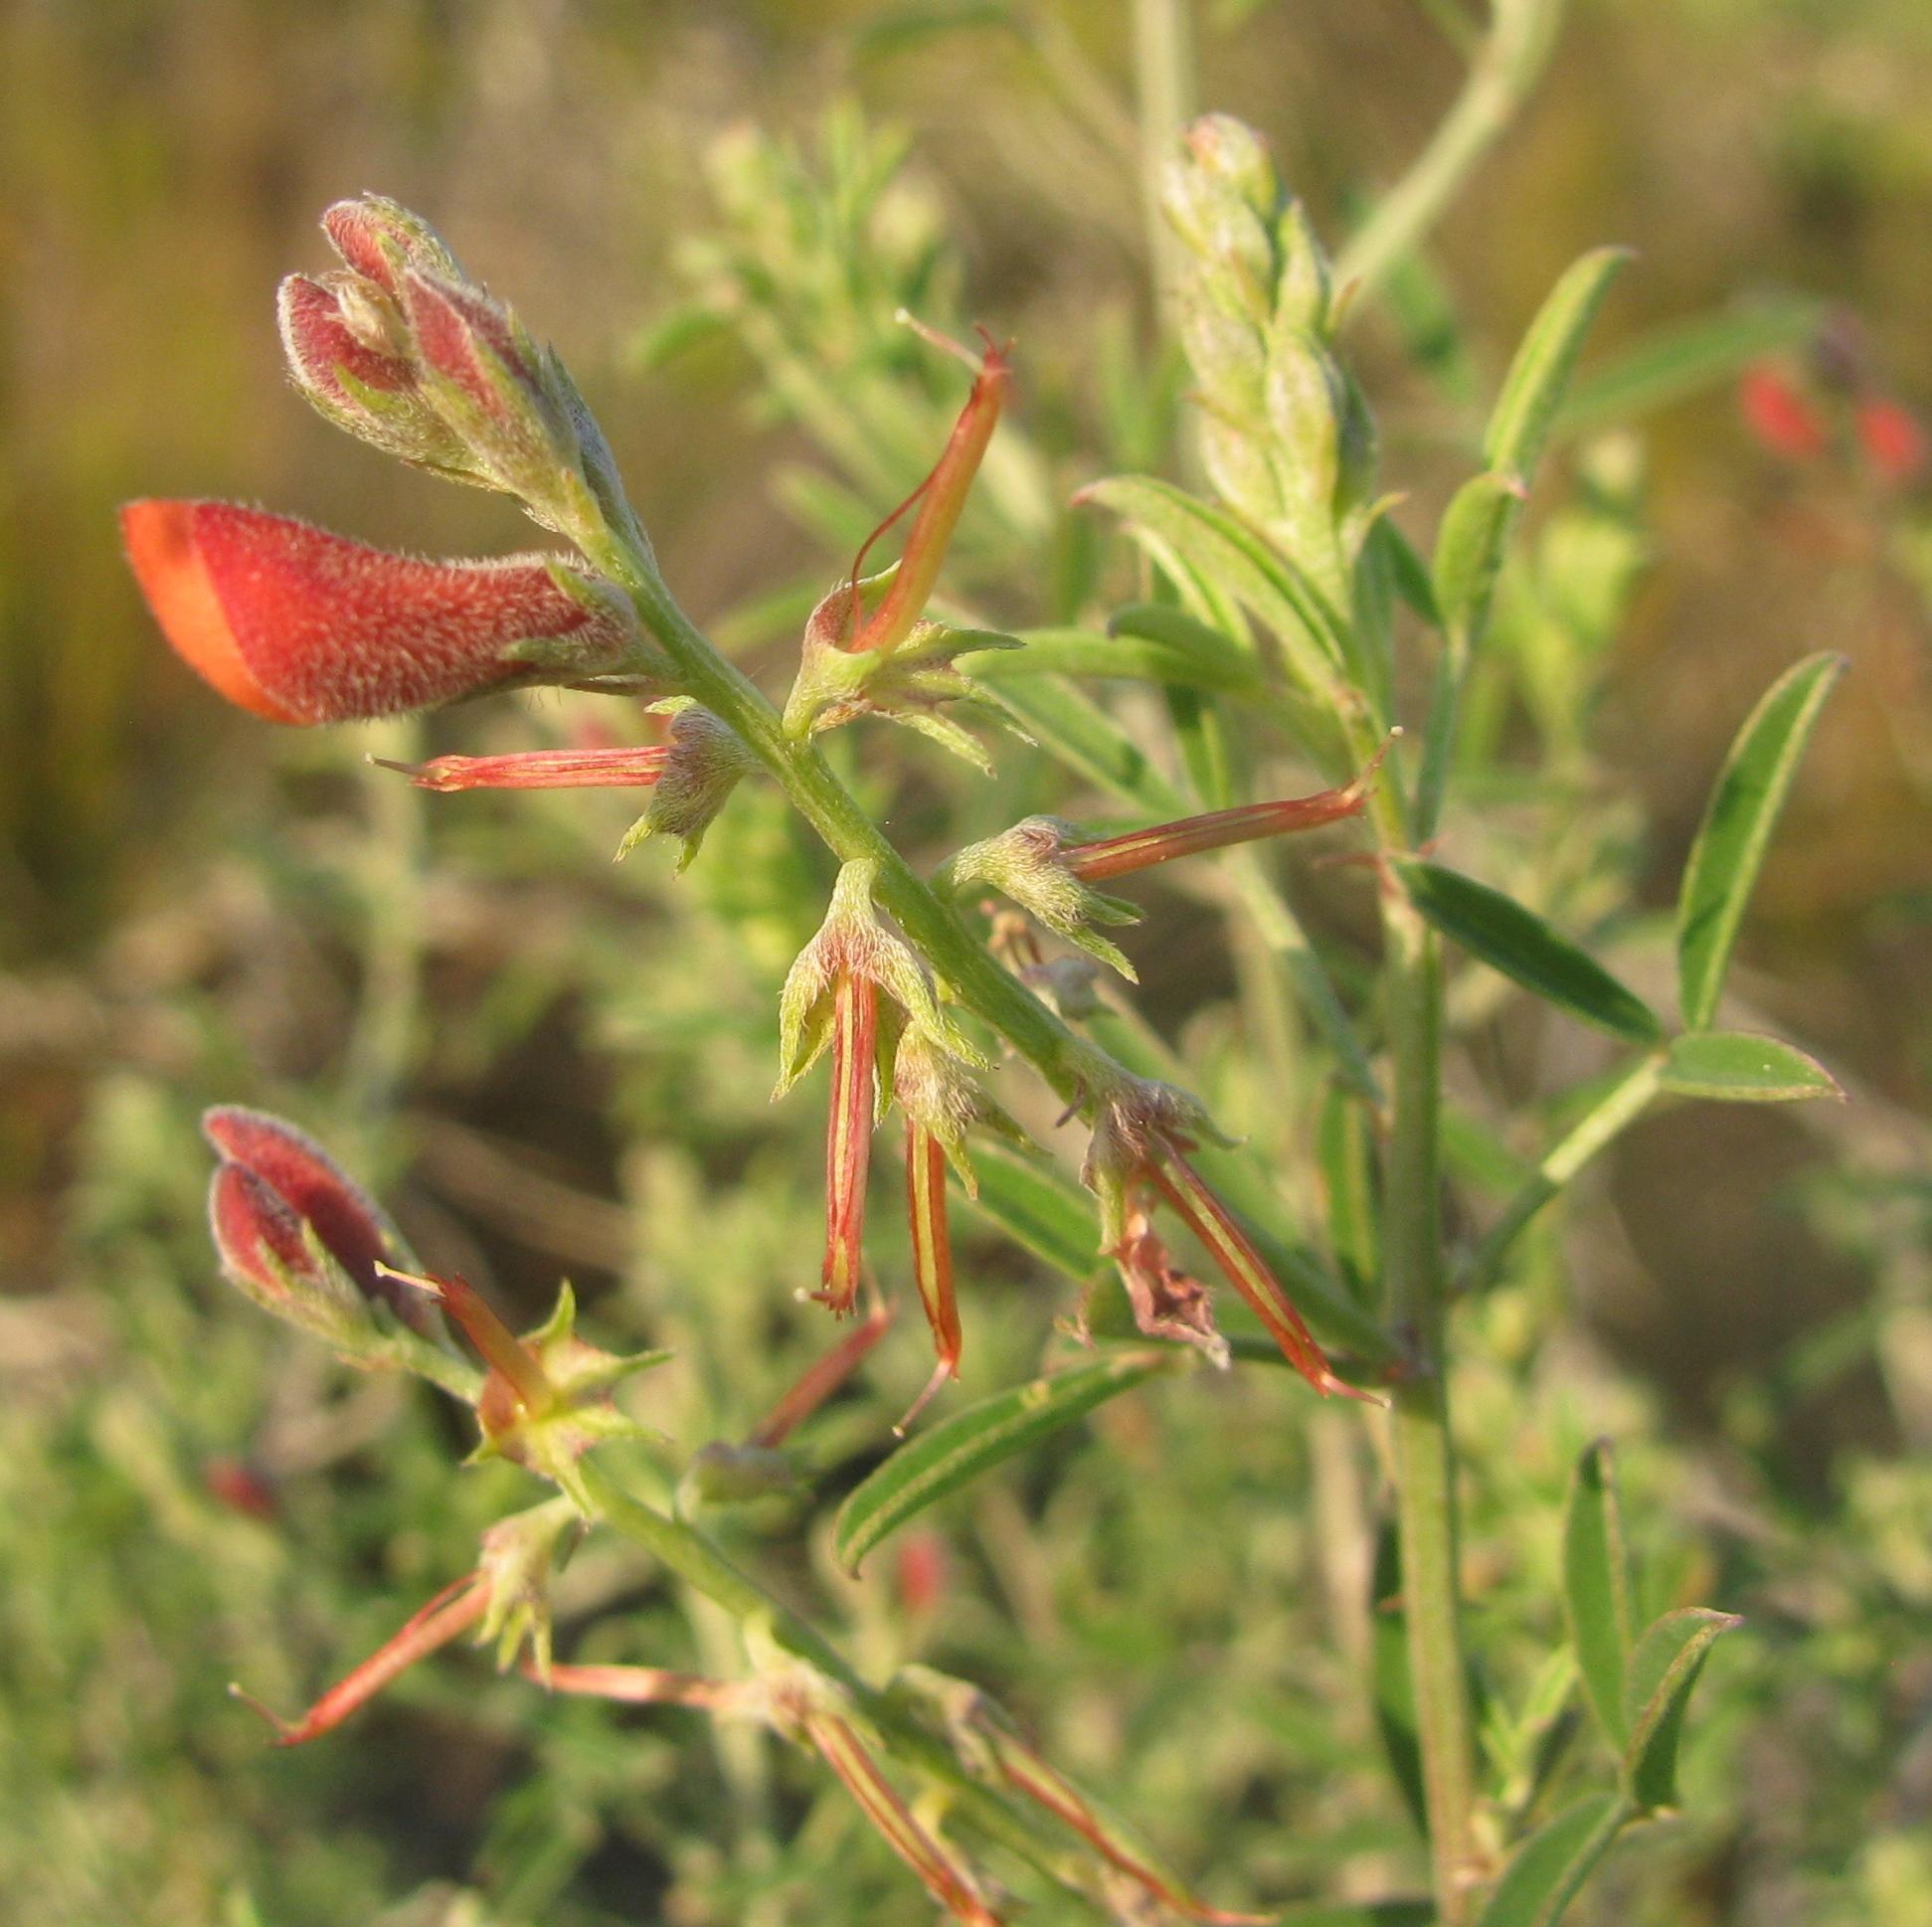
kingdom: Plantae
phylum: Tracheophyta
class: Magnoliopsida
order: Fabales
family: Fabaceae
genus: Indigofera
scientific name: Indigofera candicans
